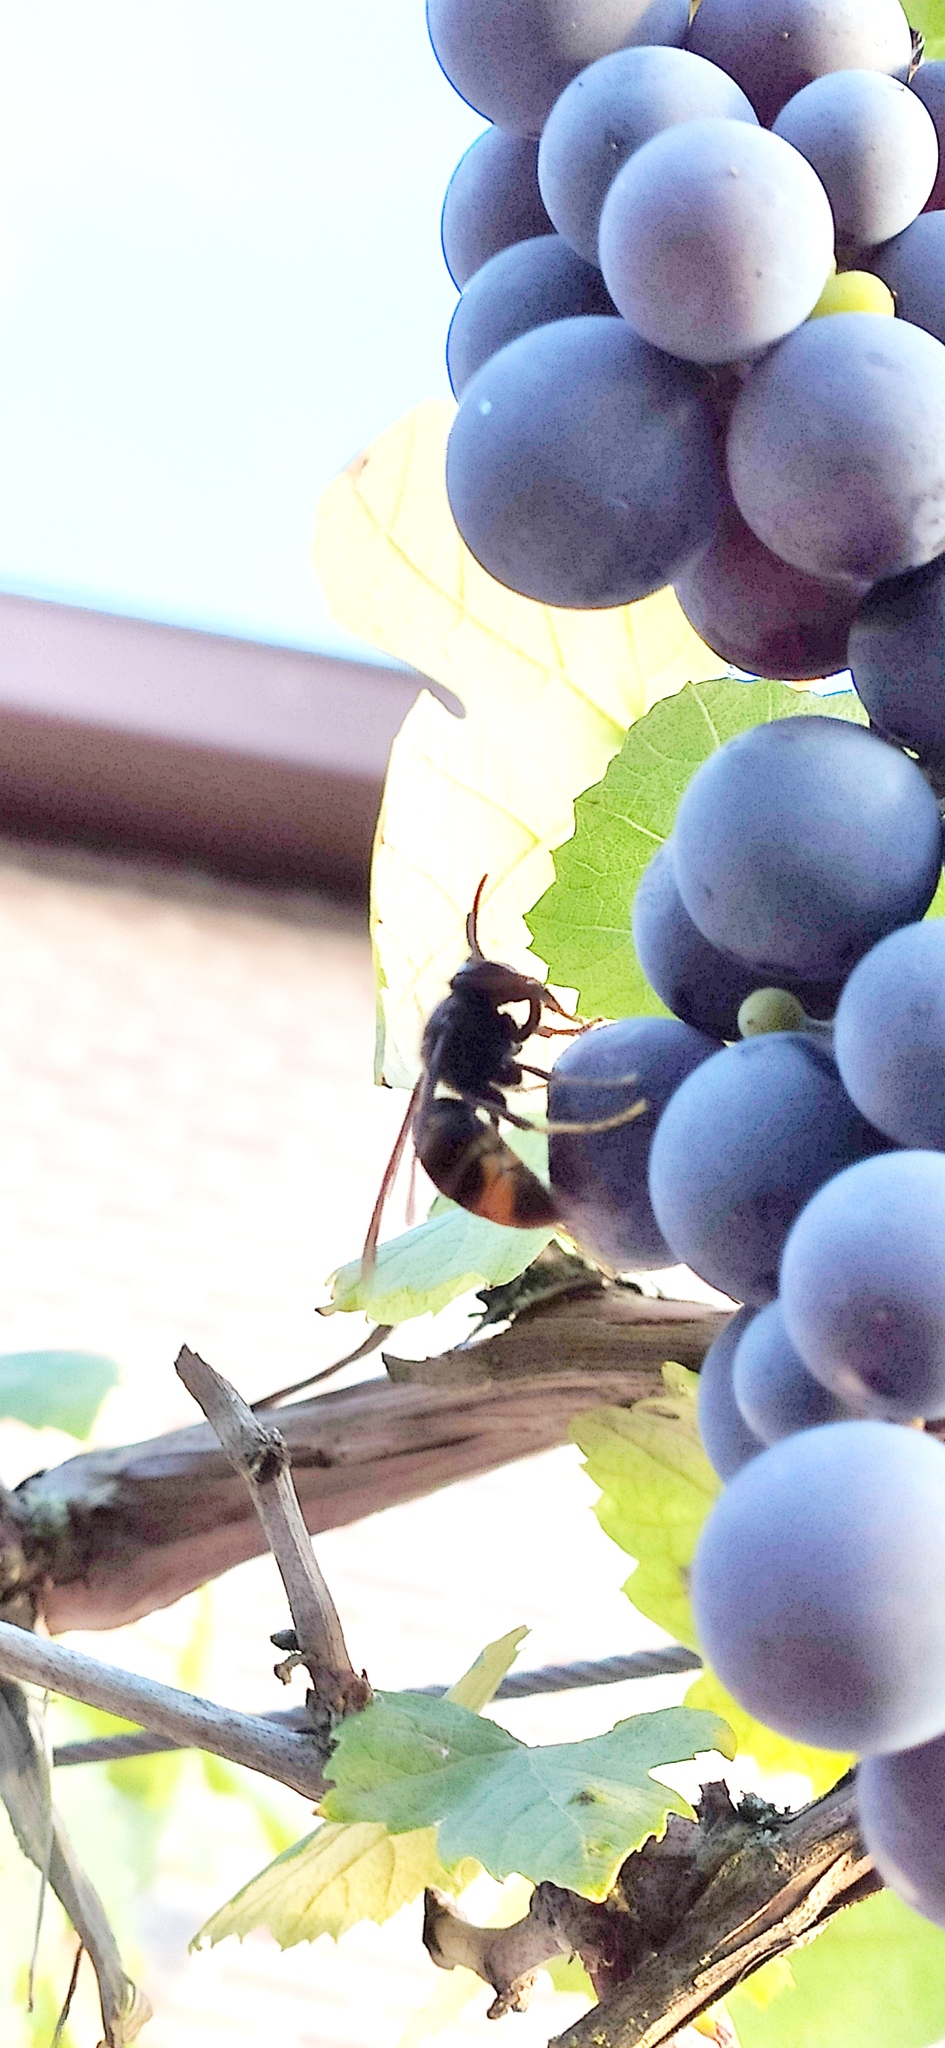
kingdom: Animalia
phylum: Arthropoda
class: Insecta
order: Hymenoptera
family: Vespidae
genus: Vespa
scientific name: Vespa velutina
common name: Asian hornet
